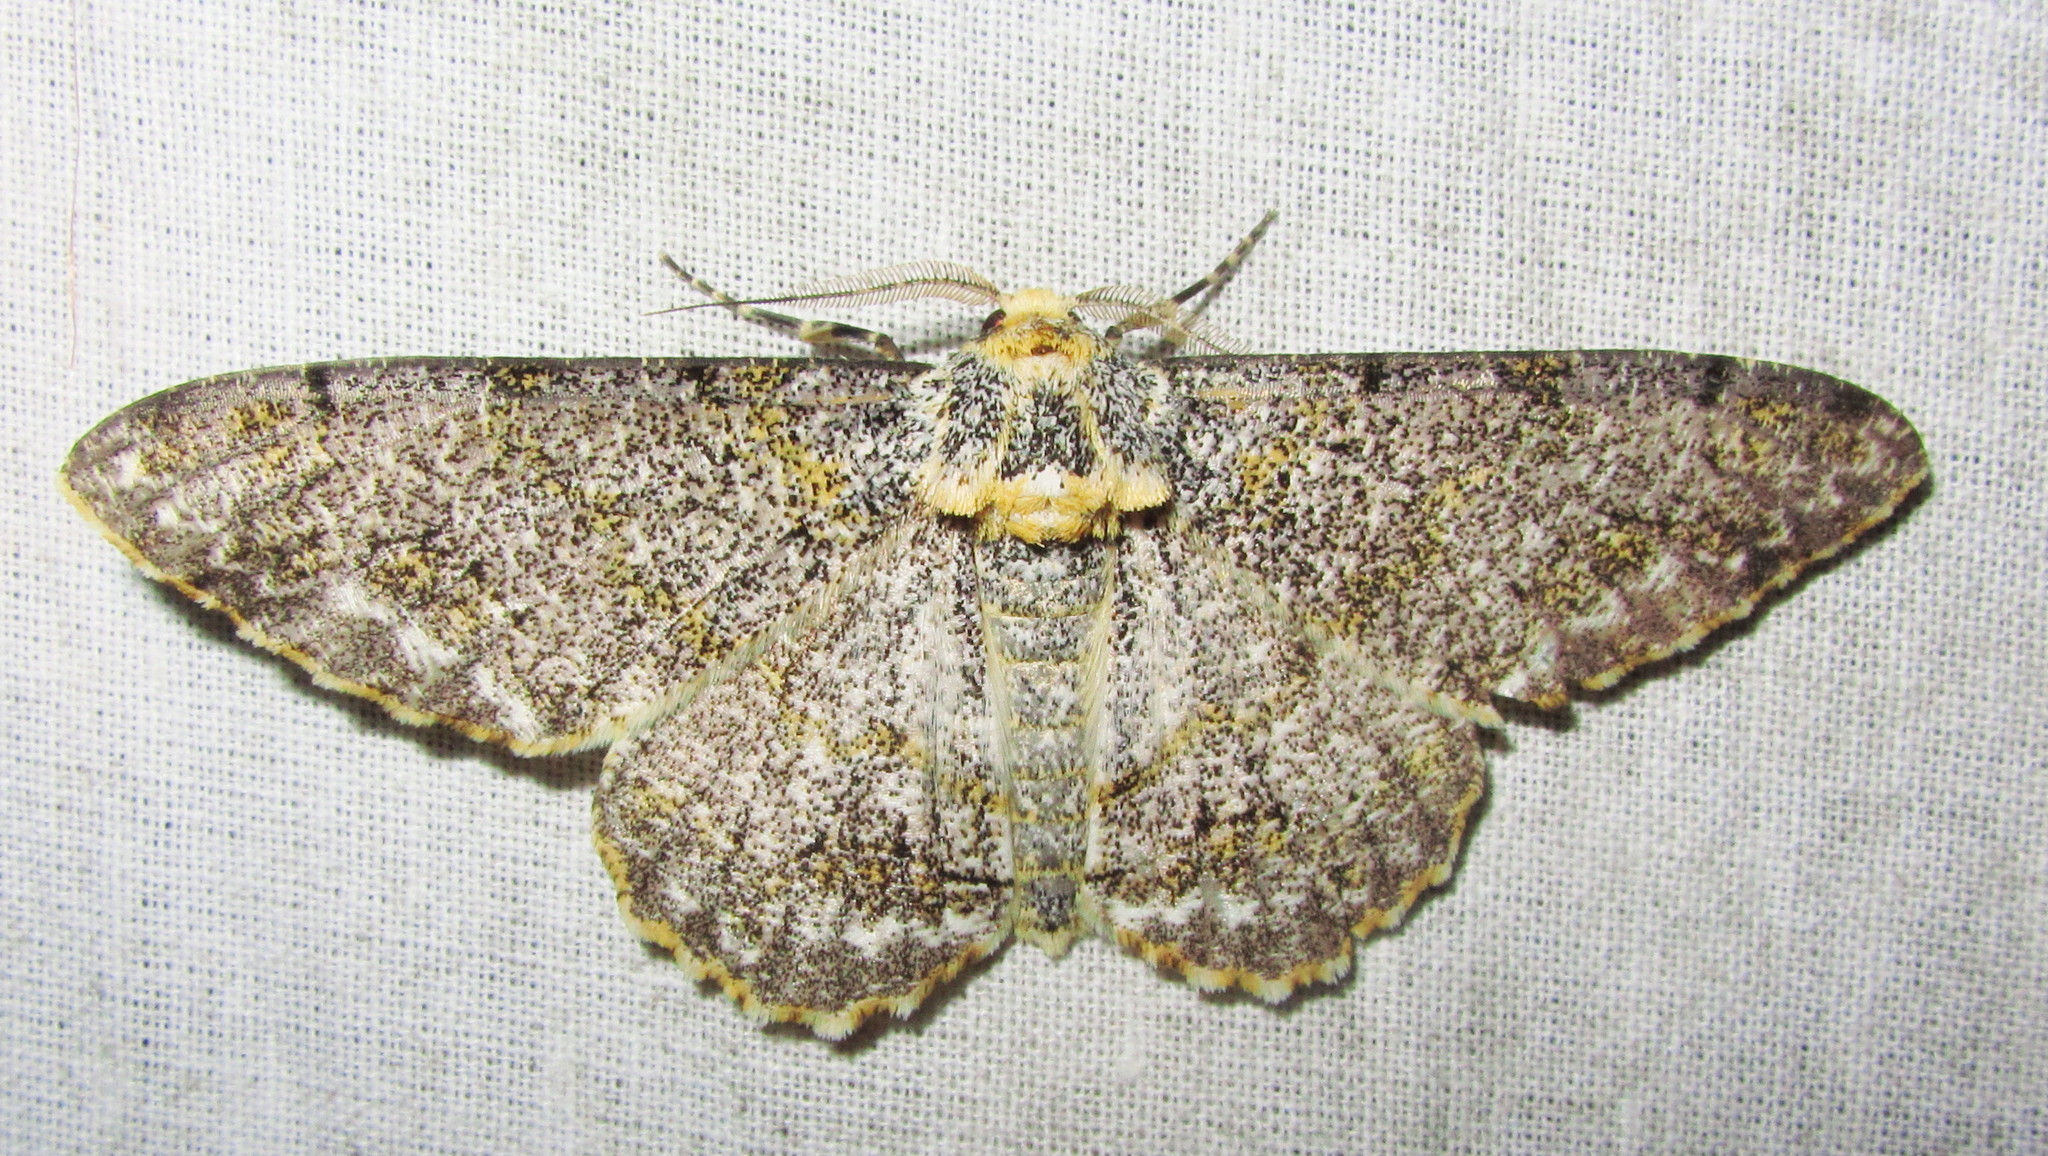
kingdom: Animalia
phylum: Arthropoda
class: Insecta
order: Lepidoptera
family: Geometridae
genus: Biston
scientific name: Biston suppressaria
